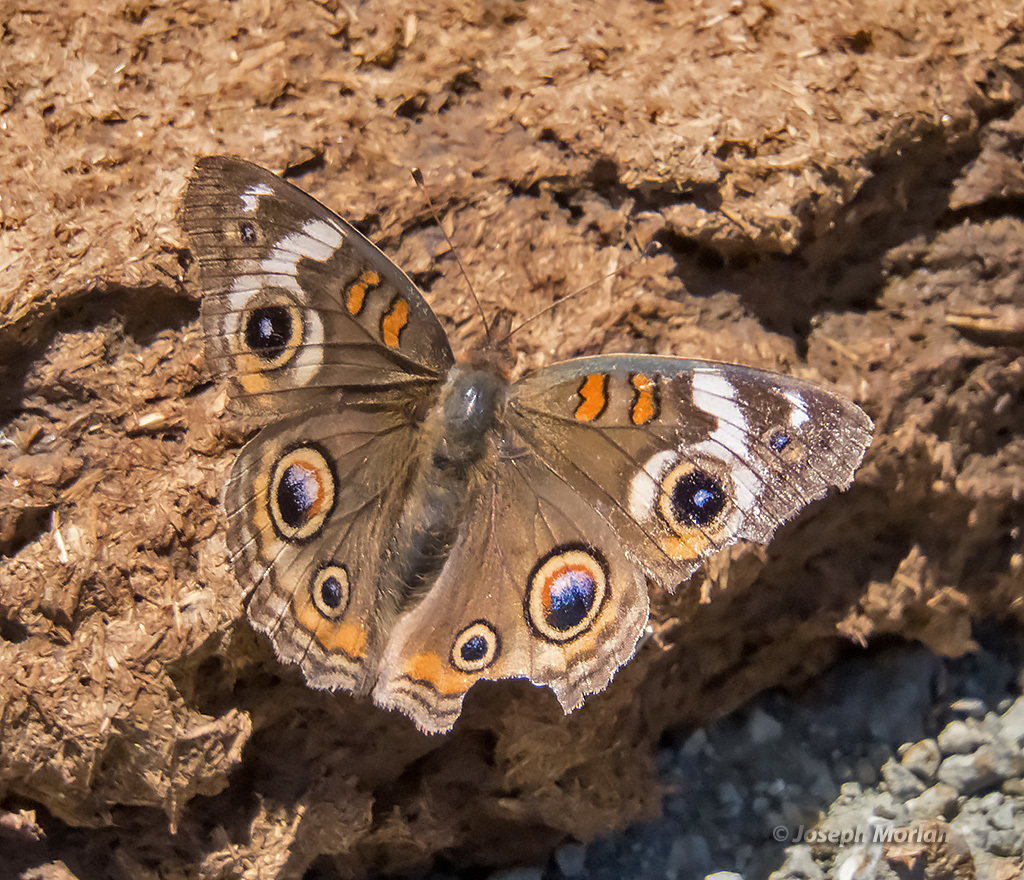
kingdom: Animalia
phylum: Arthropoda
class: Insecta
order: Lepidoptera
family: Nymphalidae
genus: Junonia
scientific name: Junonia grisea
